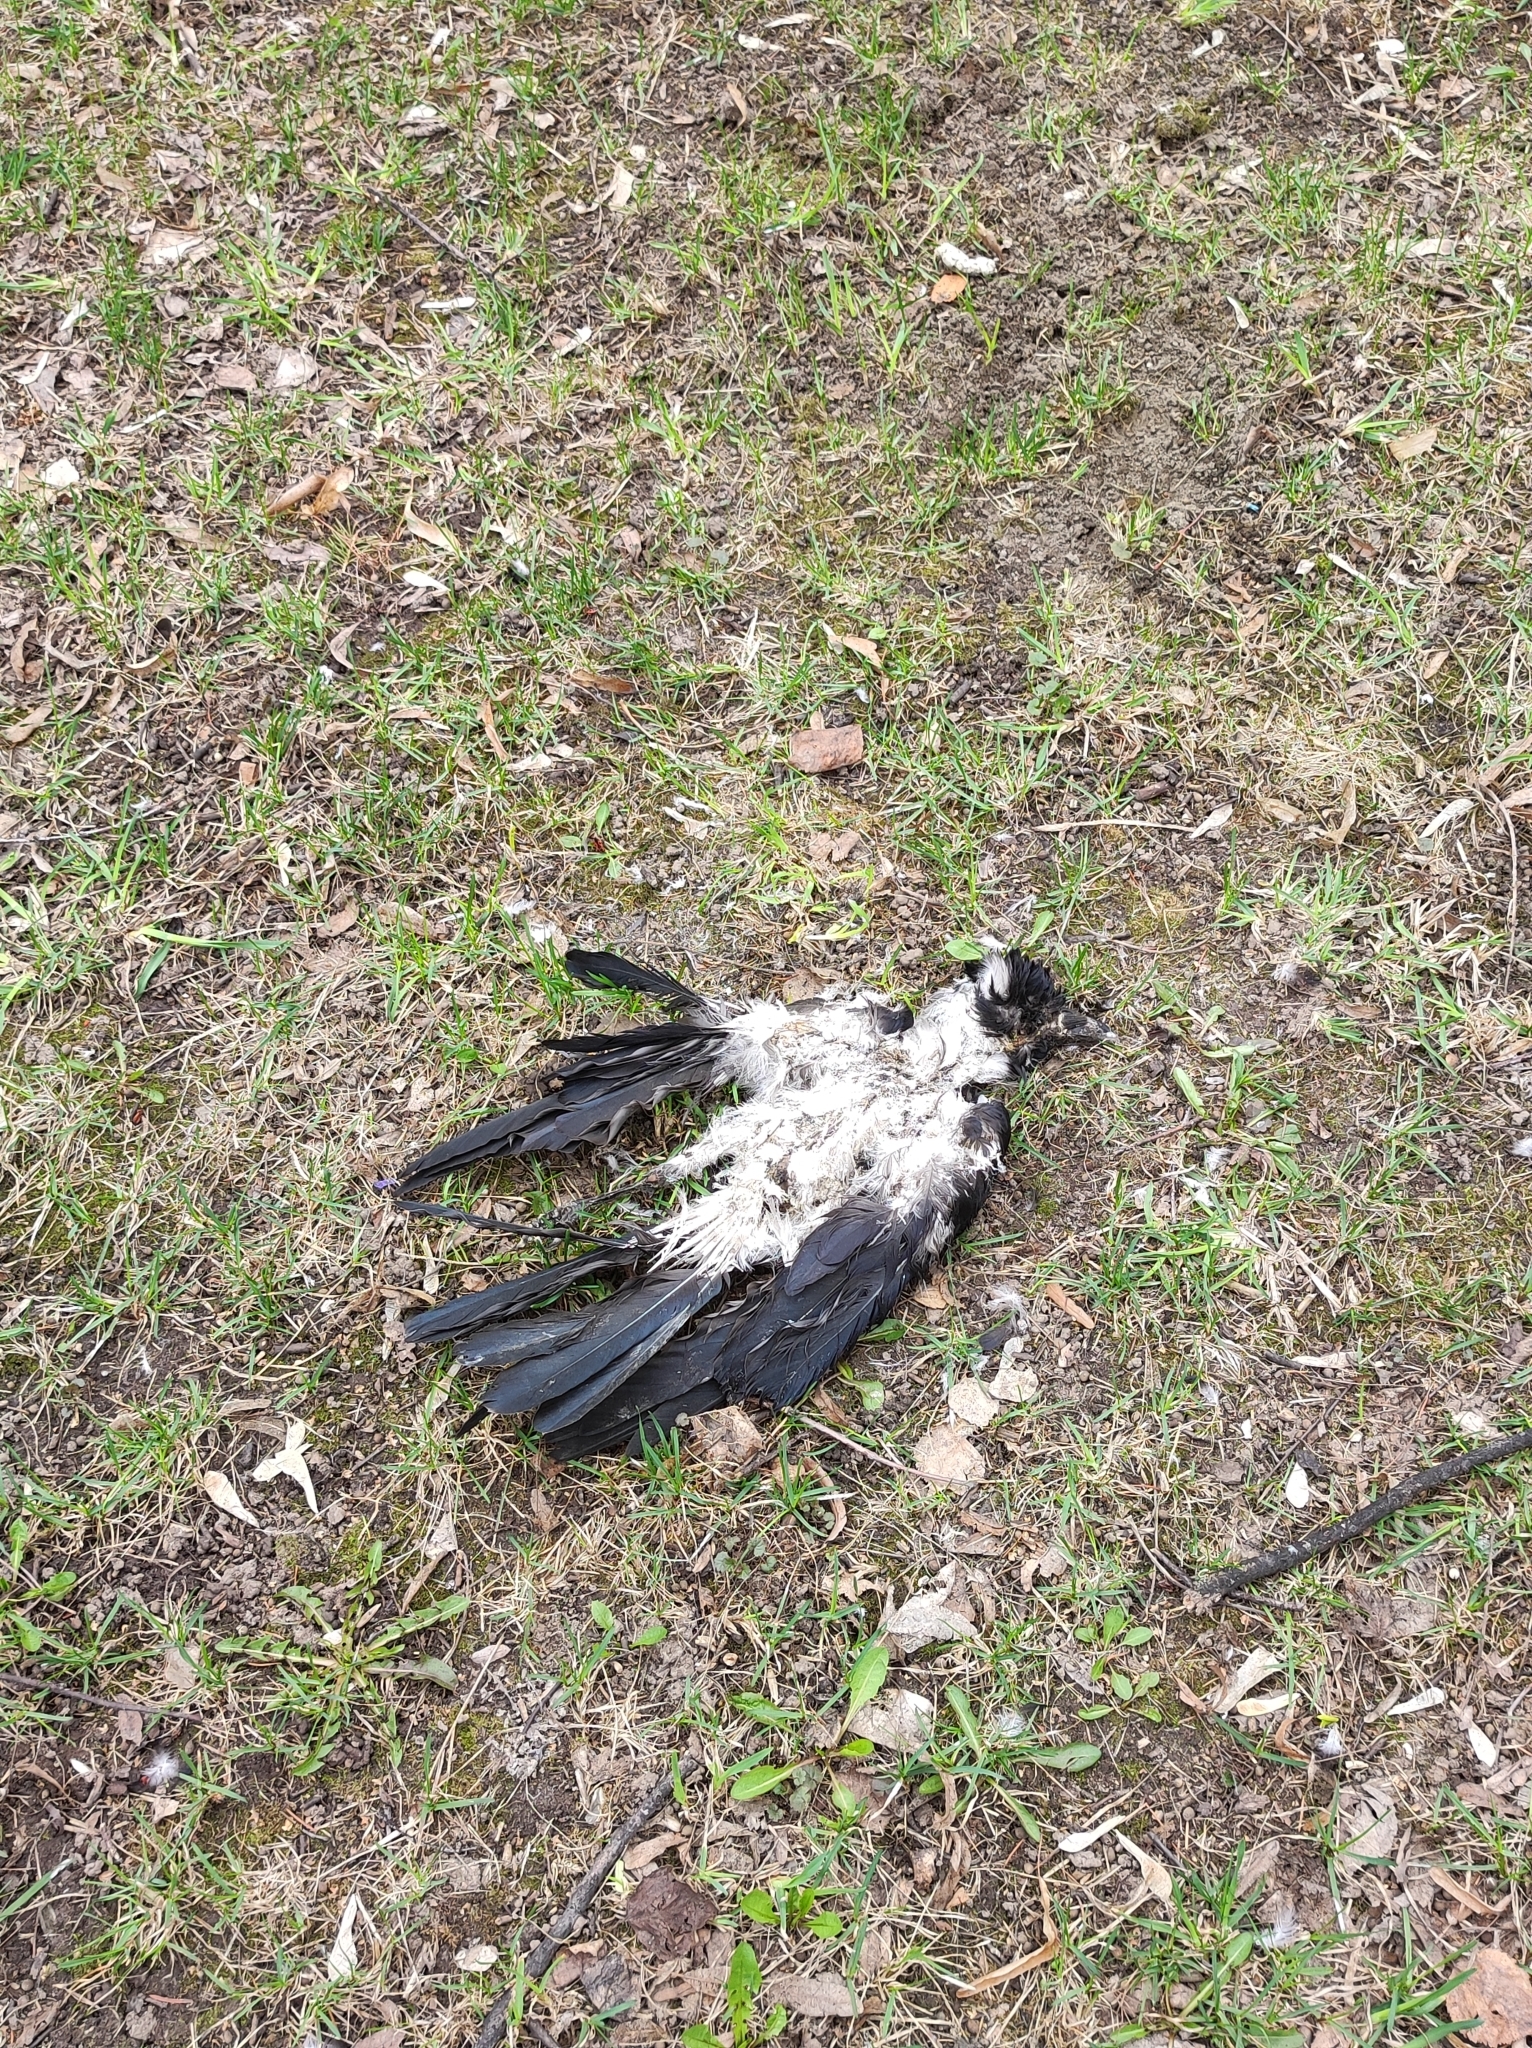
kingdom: Animalia
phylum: Chordata
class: Aves
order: Passeriformes
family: Corvidae
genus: Corvus
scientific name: Corvus cornix
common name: Hooded crow
